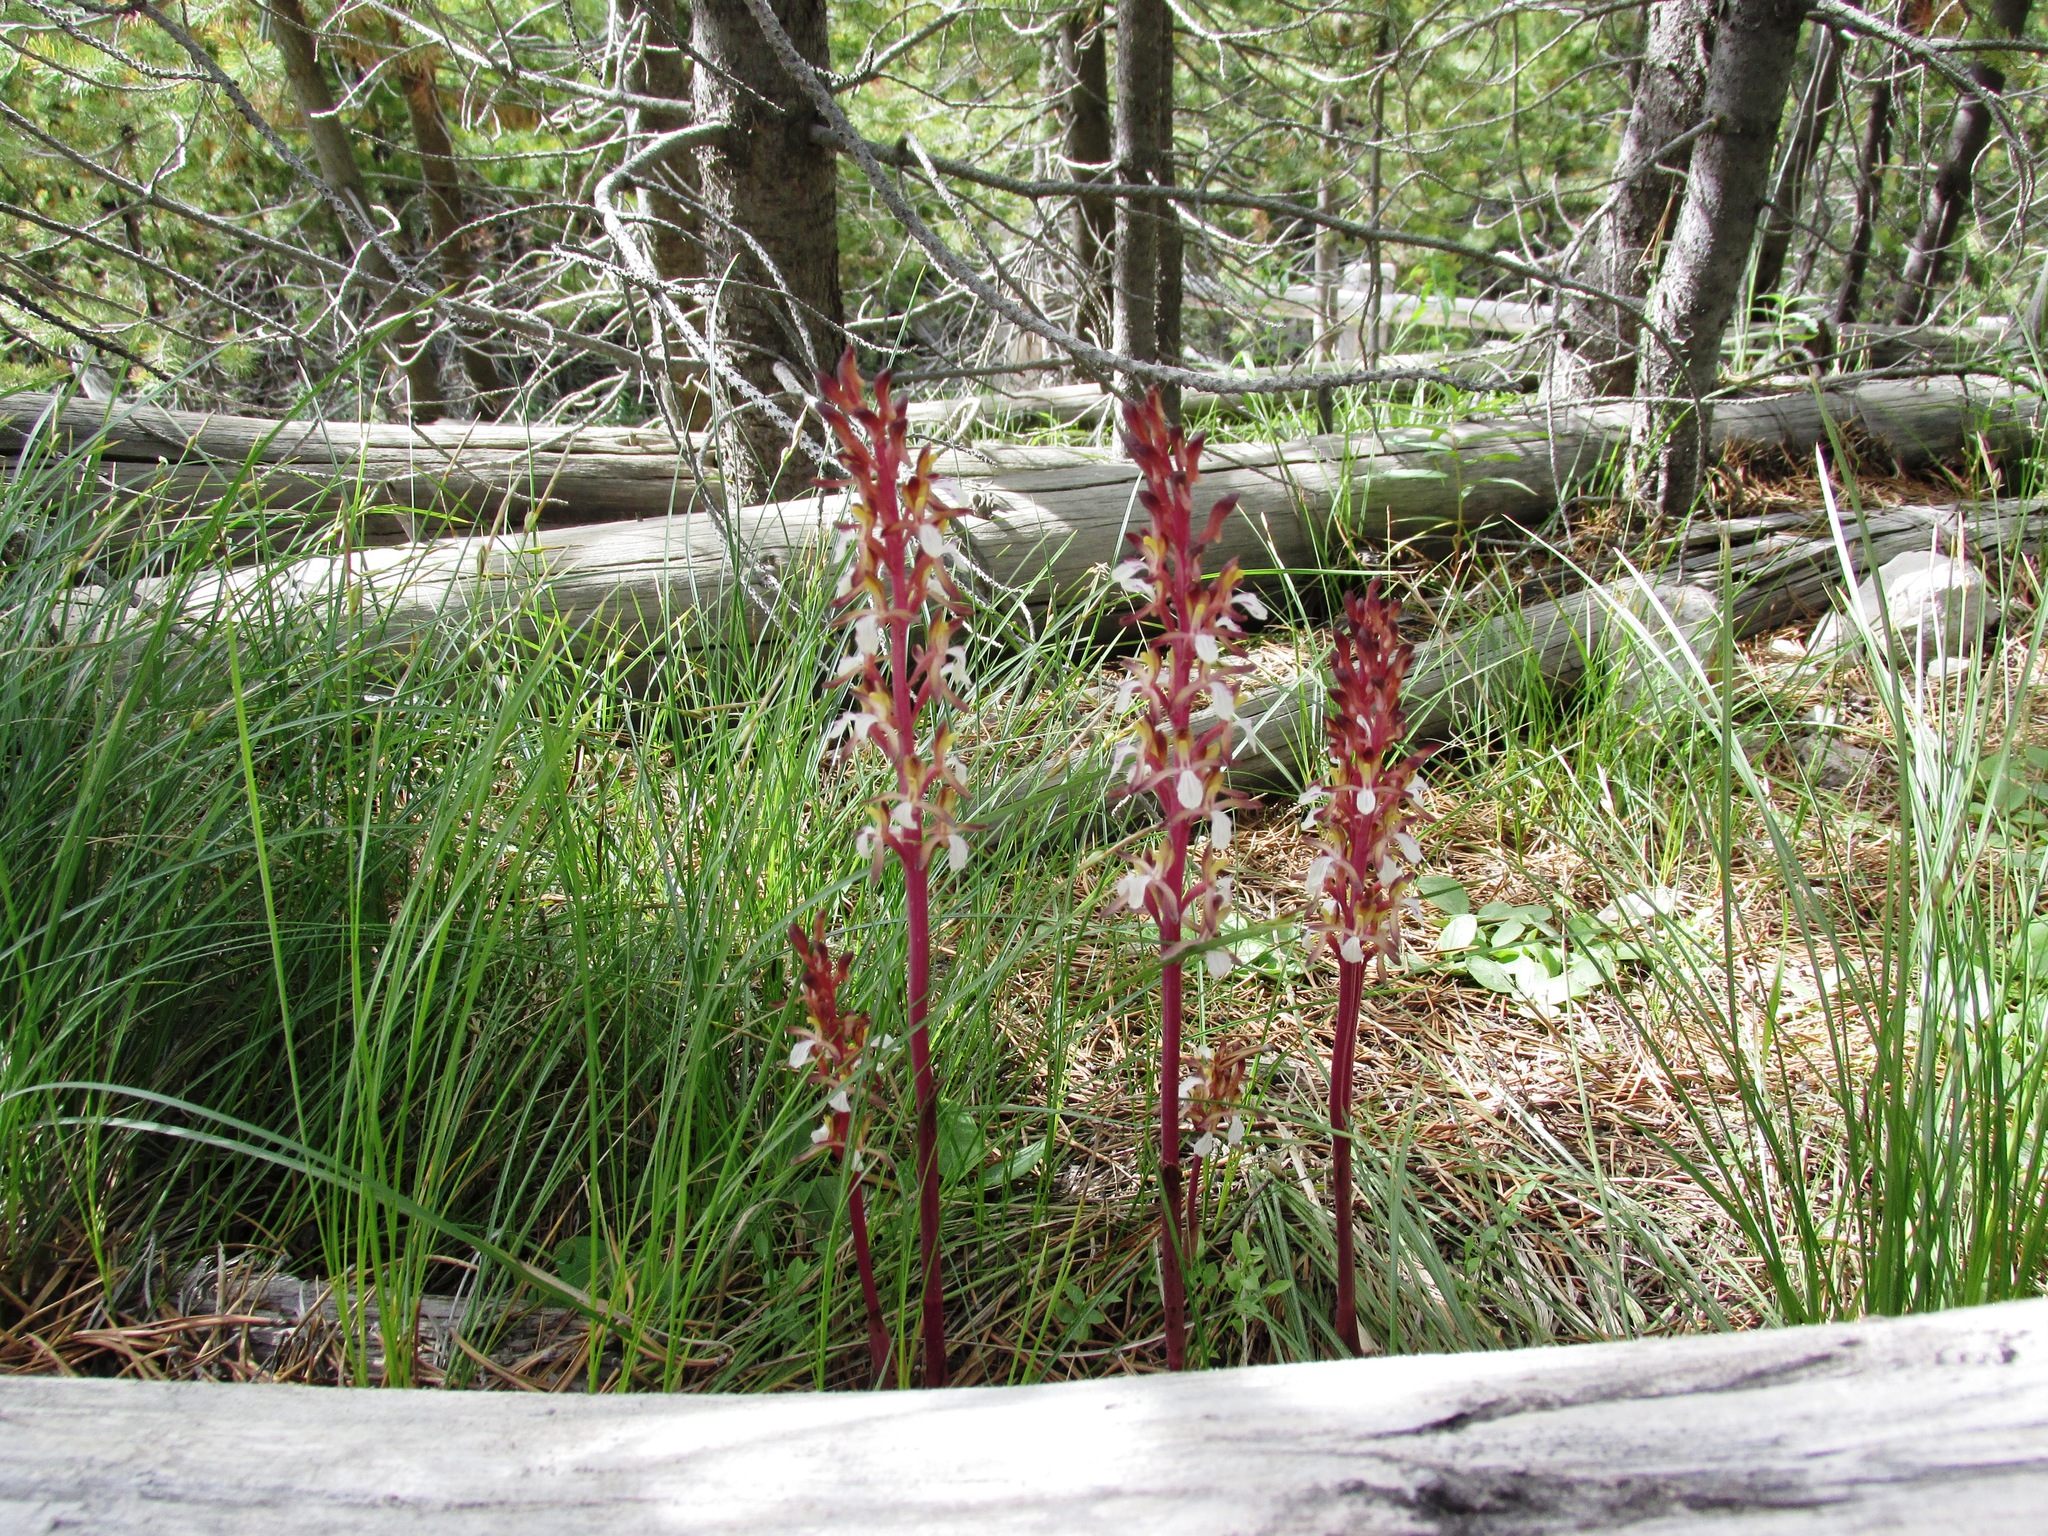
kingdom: Plantae
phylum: Tracheophyta
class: Liliopsida
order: Asparagales
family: Orchidaceae
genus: Corallorhiza
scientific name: Corallorhiza mertensiana
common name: Pacific coralroot
